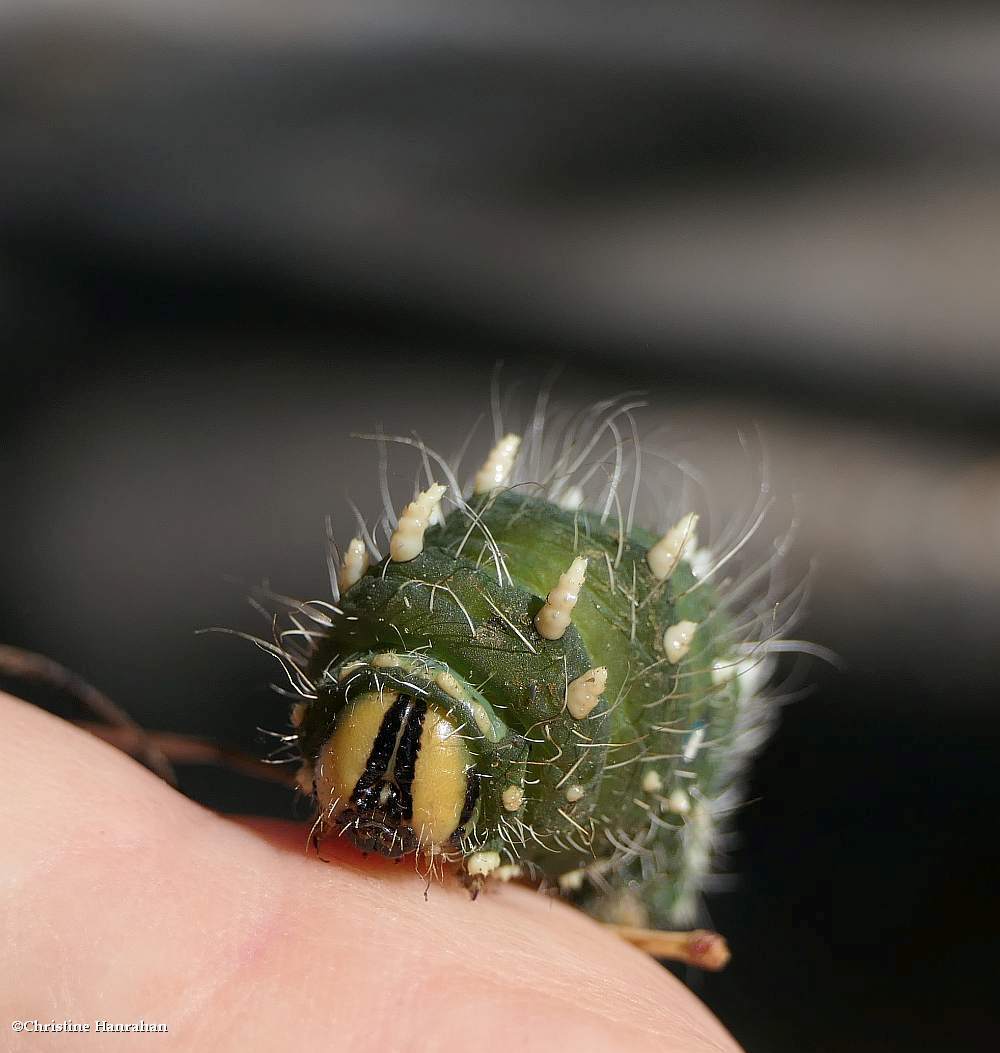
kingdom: Animalia
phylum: Arthropoda
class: Insecta
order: Lepidoptera
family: Saturniidae
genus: Eacles
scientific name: Eacles
